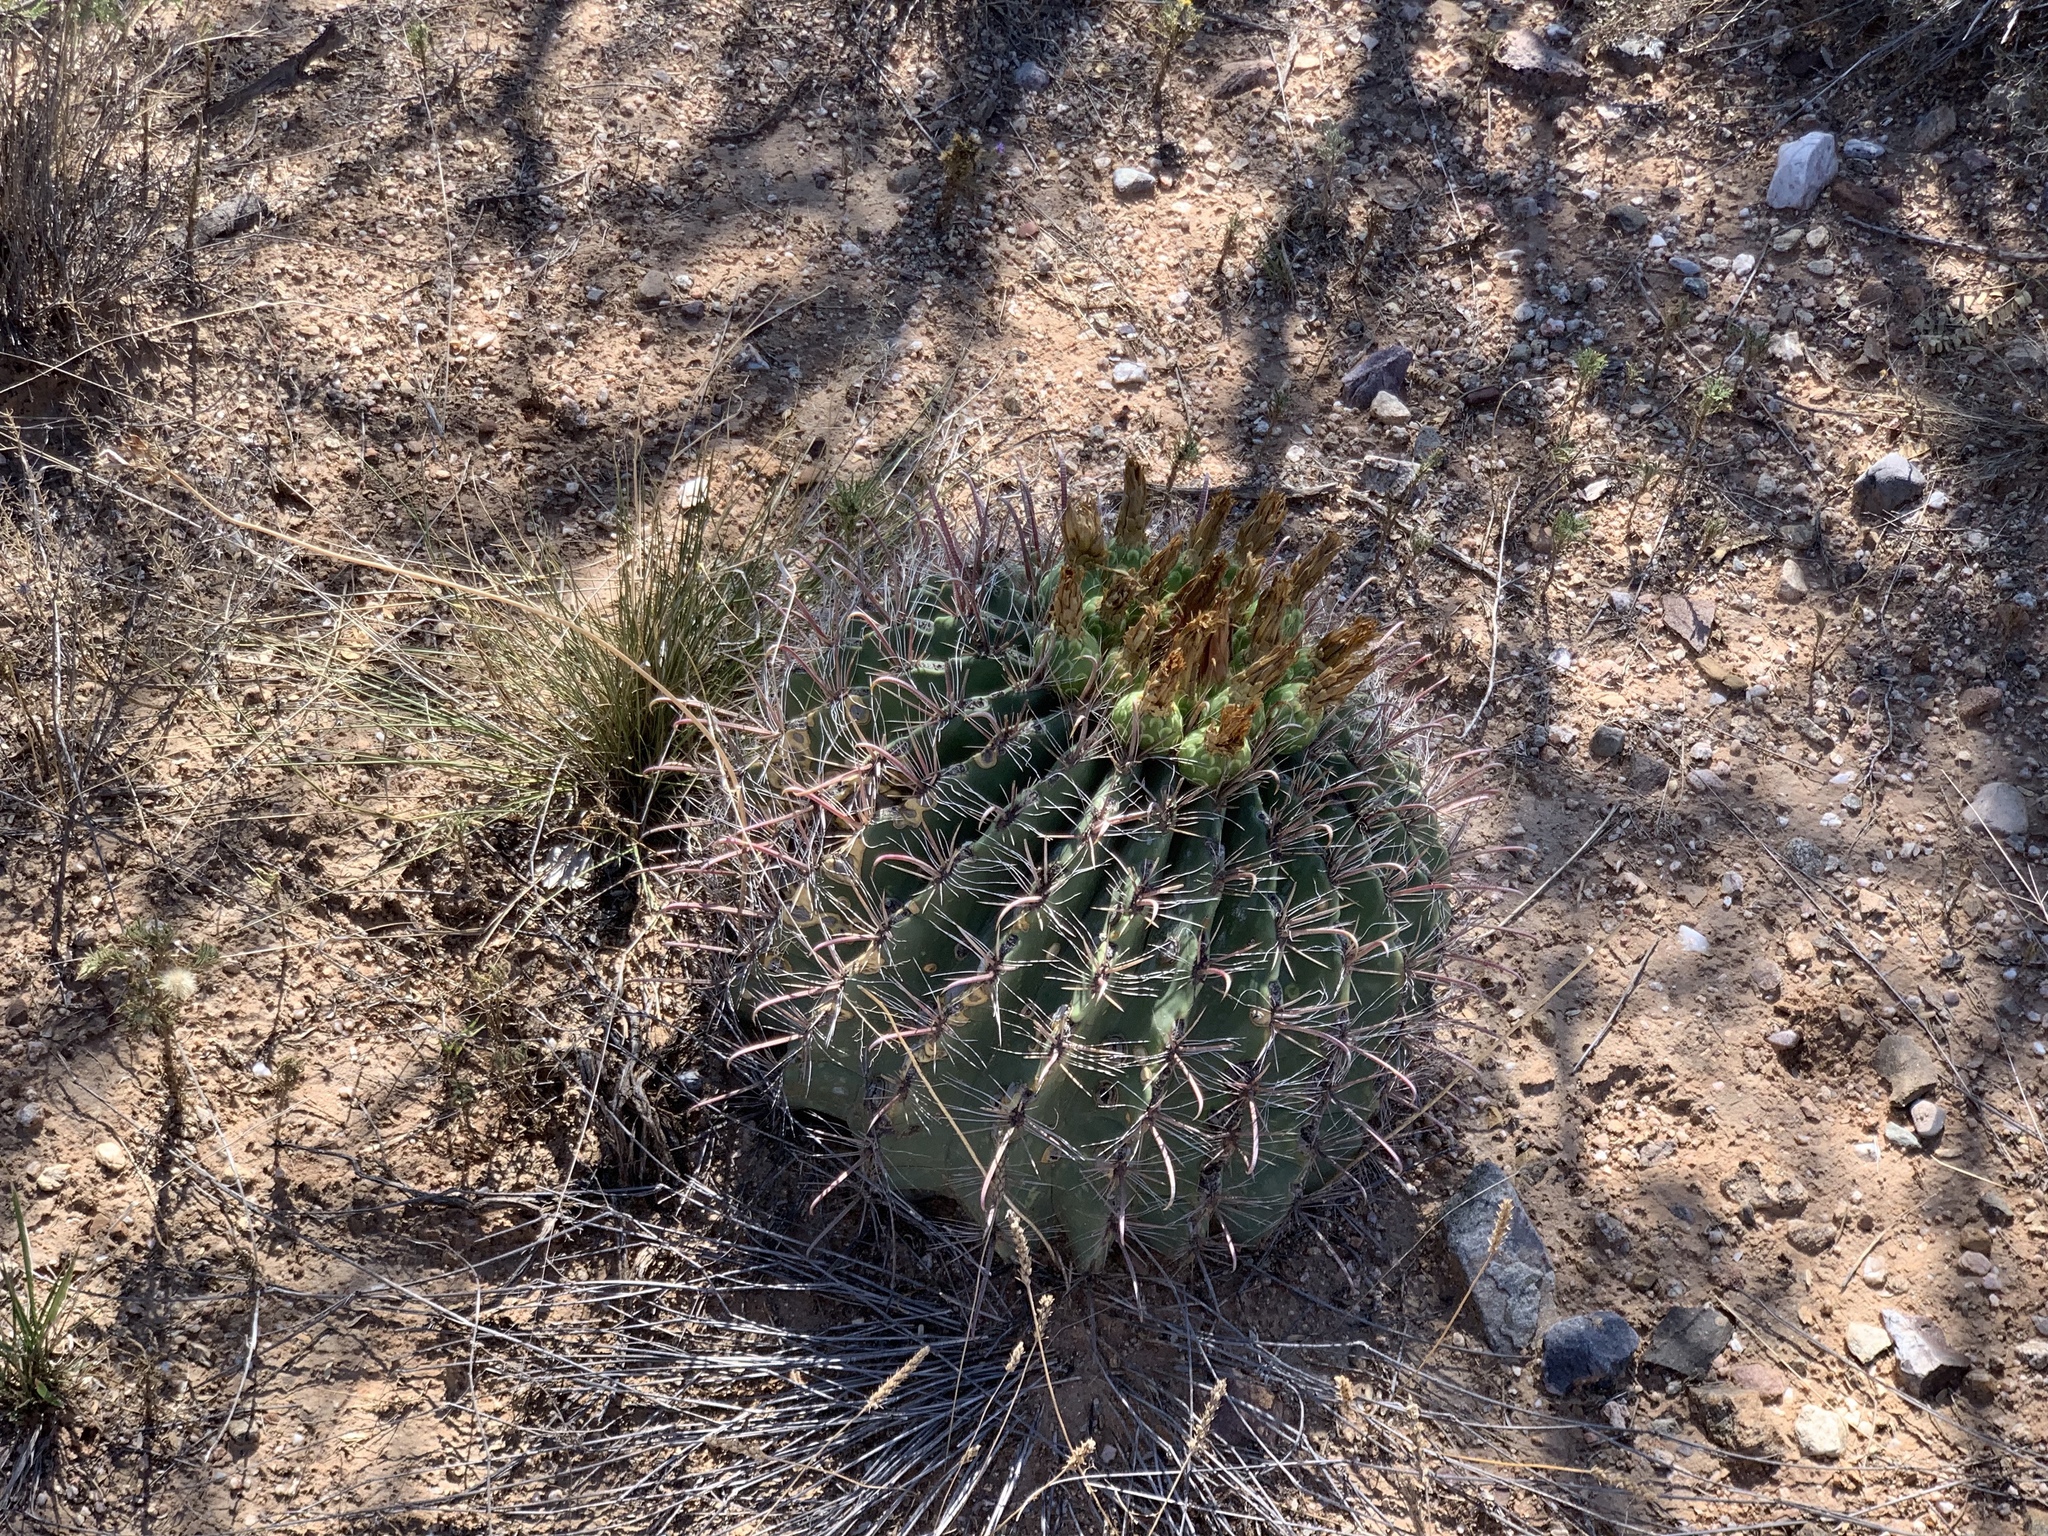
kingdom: Plantae
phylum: Tracheophyta
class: Magnoliopsida
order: Caryophyllales
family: Cactaceae
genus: Ferocactus
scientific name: Ferocactus wislizeni
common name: Candy barrel cactus
